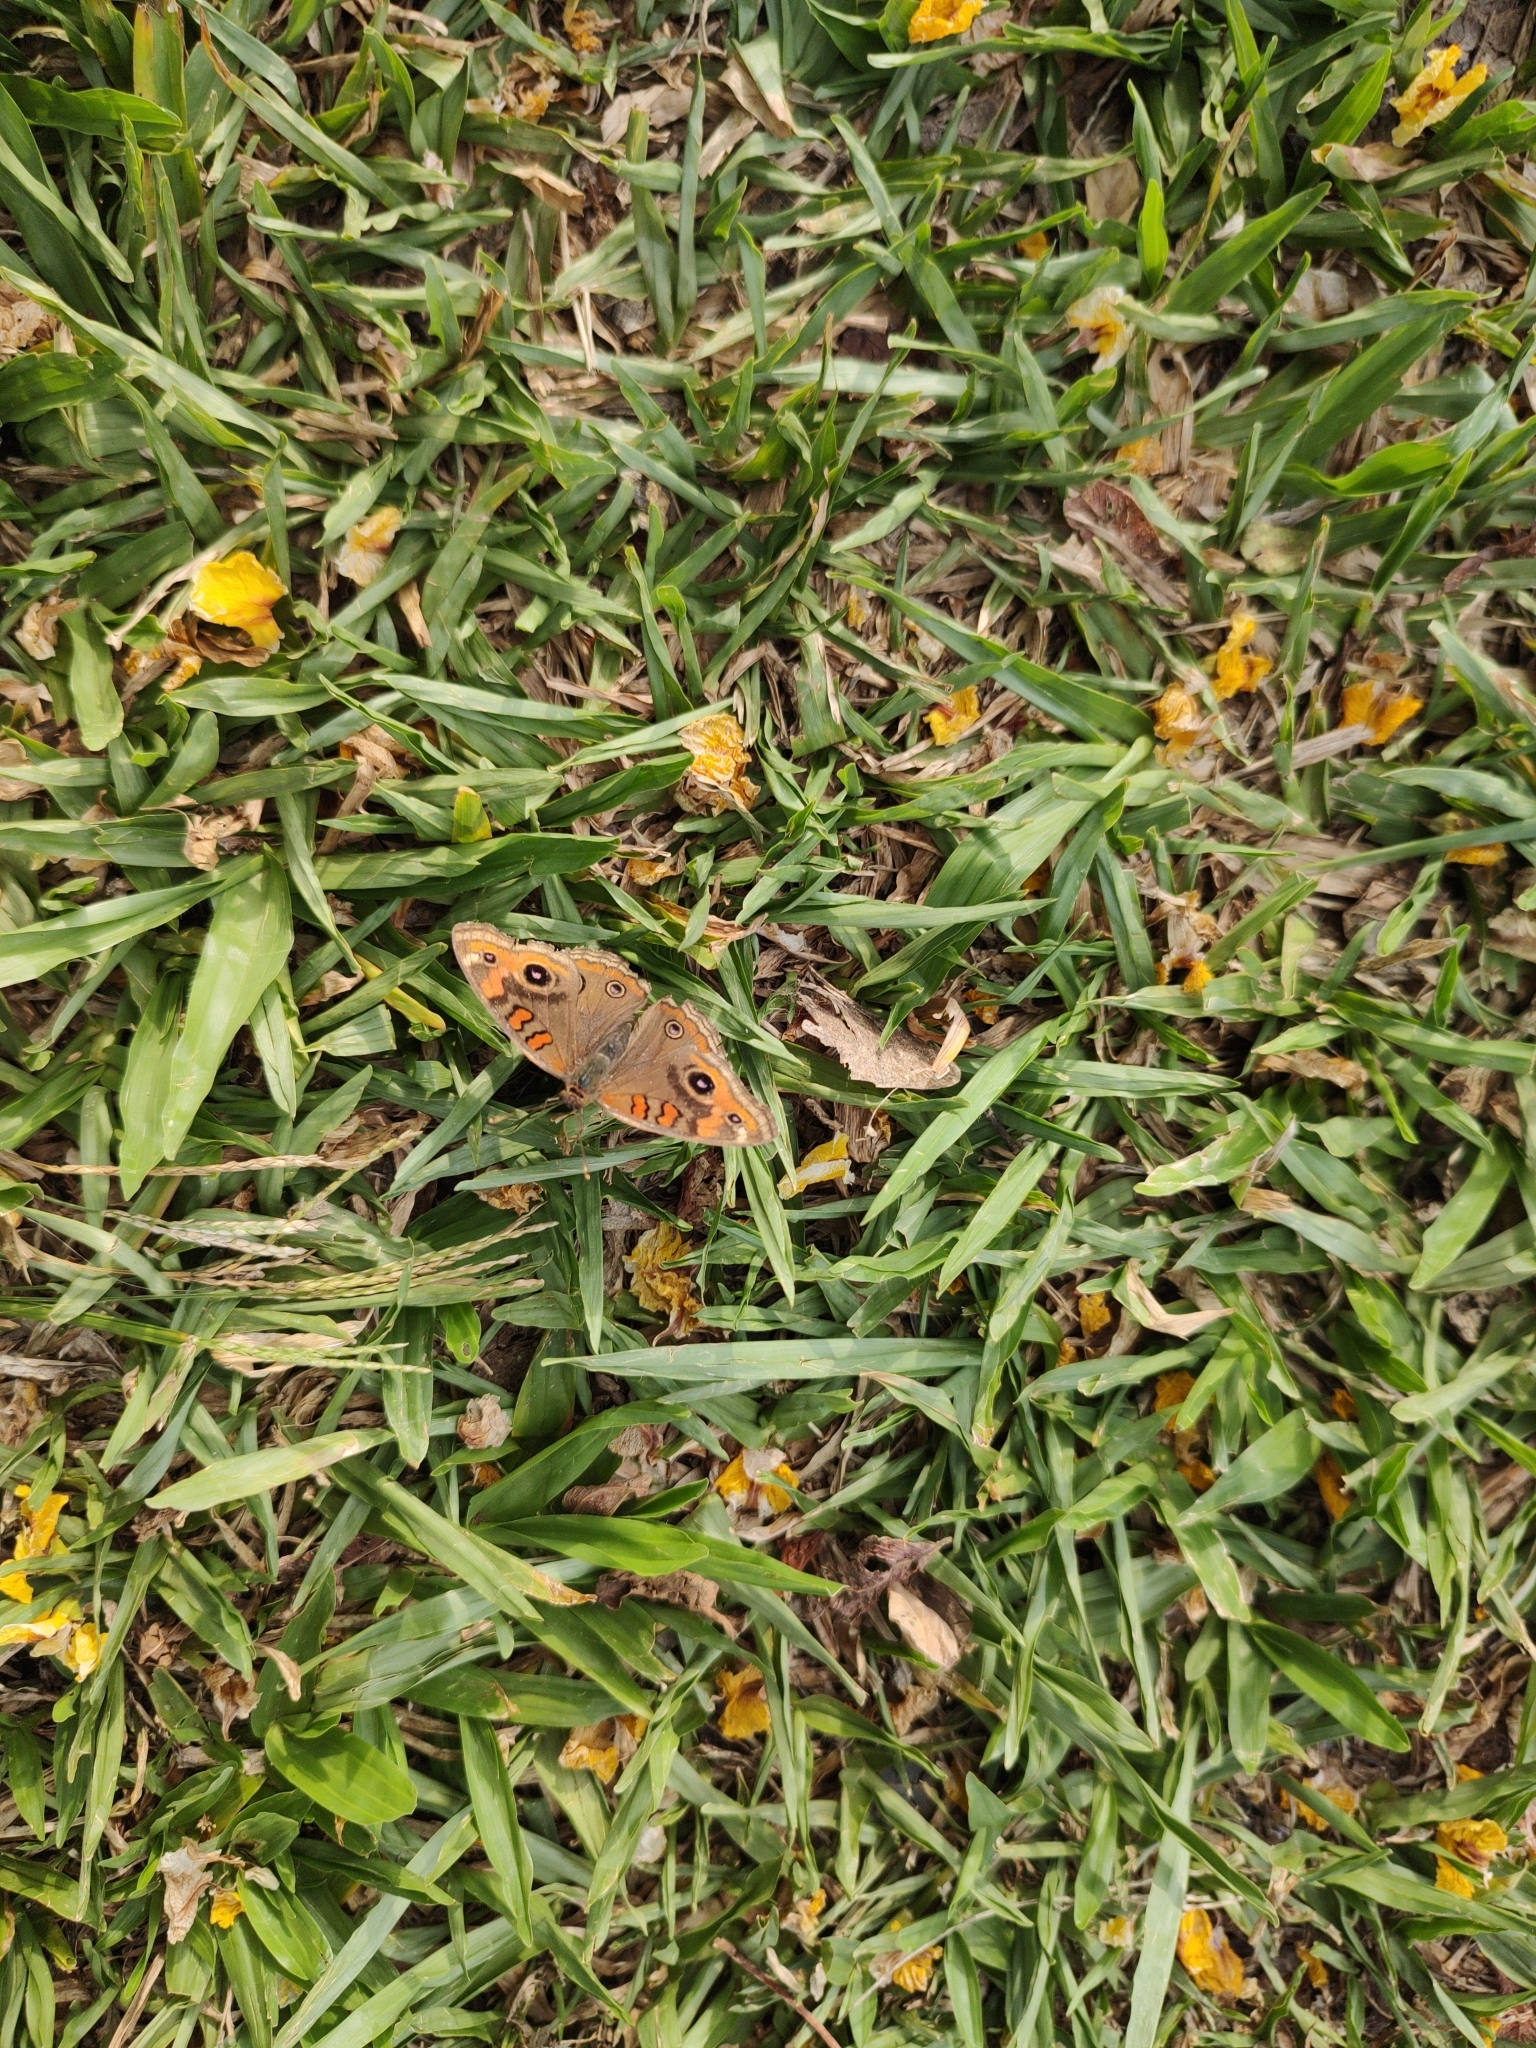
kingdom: Animalia
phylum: Arthropoda
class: Insecta
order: Lepidoptera
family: Nymphalidae
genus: Junonia
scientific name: Junonia evarete
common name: Black mangrove buckeye
